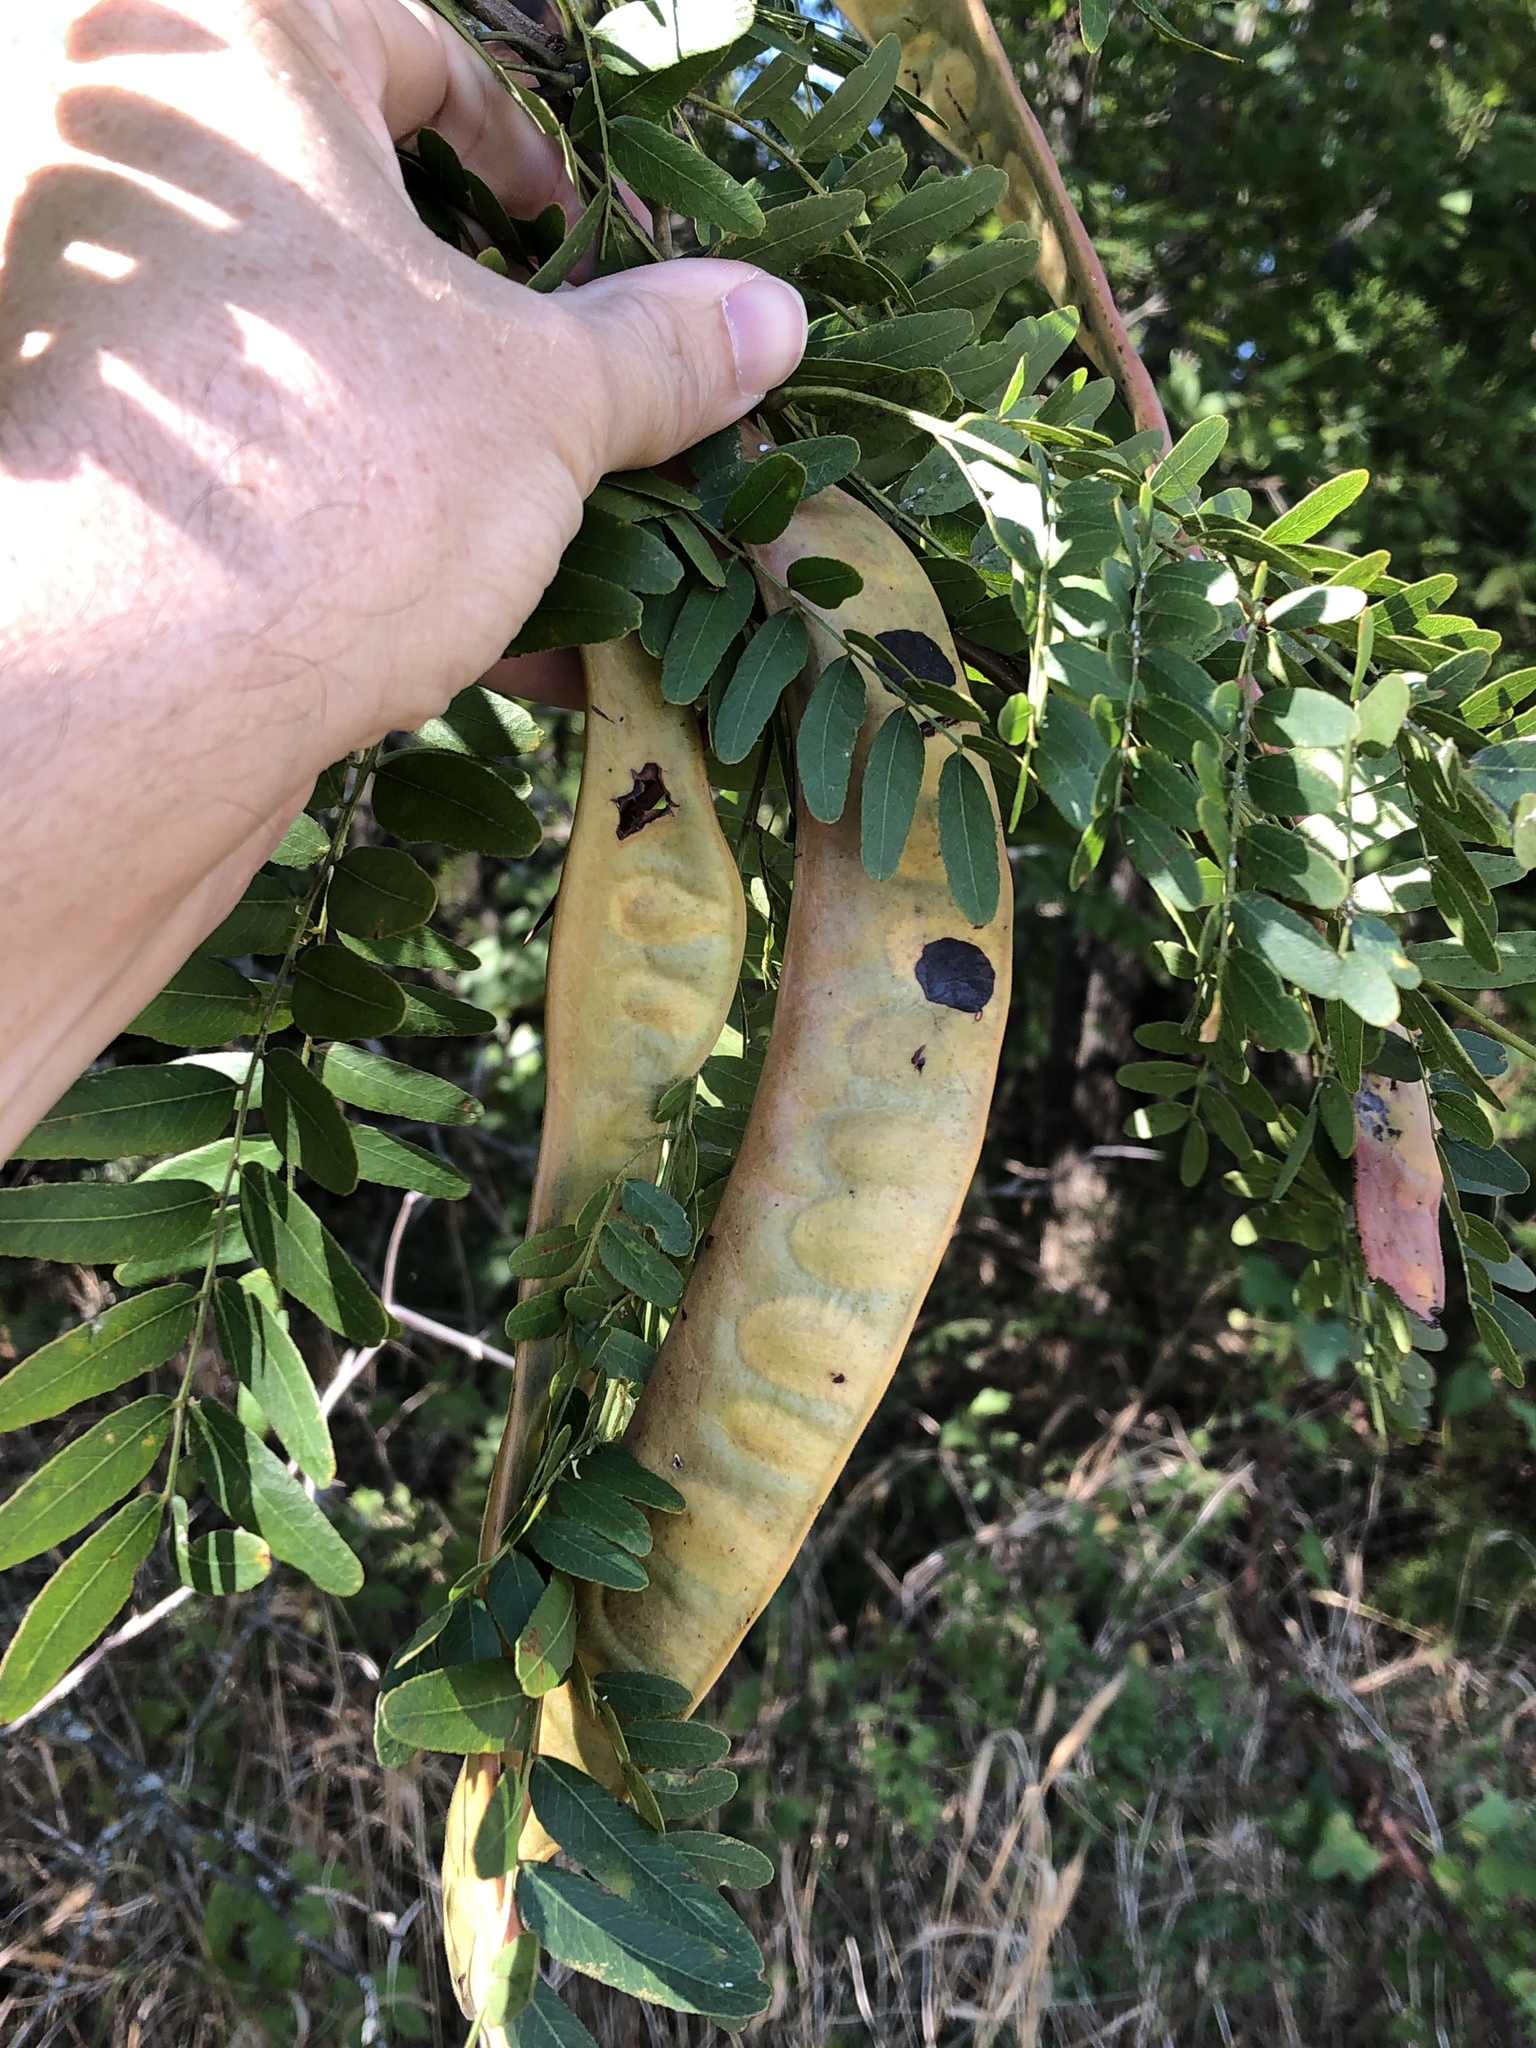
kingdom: Plantae
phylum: Tracheophyta
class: Magnoliopsida
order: Fabales
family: Fabaceae
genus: Gleditsia
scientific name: Gleditsia triacanthos
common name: Common honeylocust
